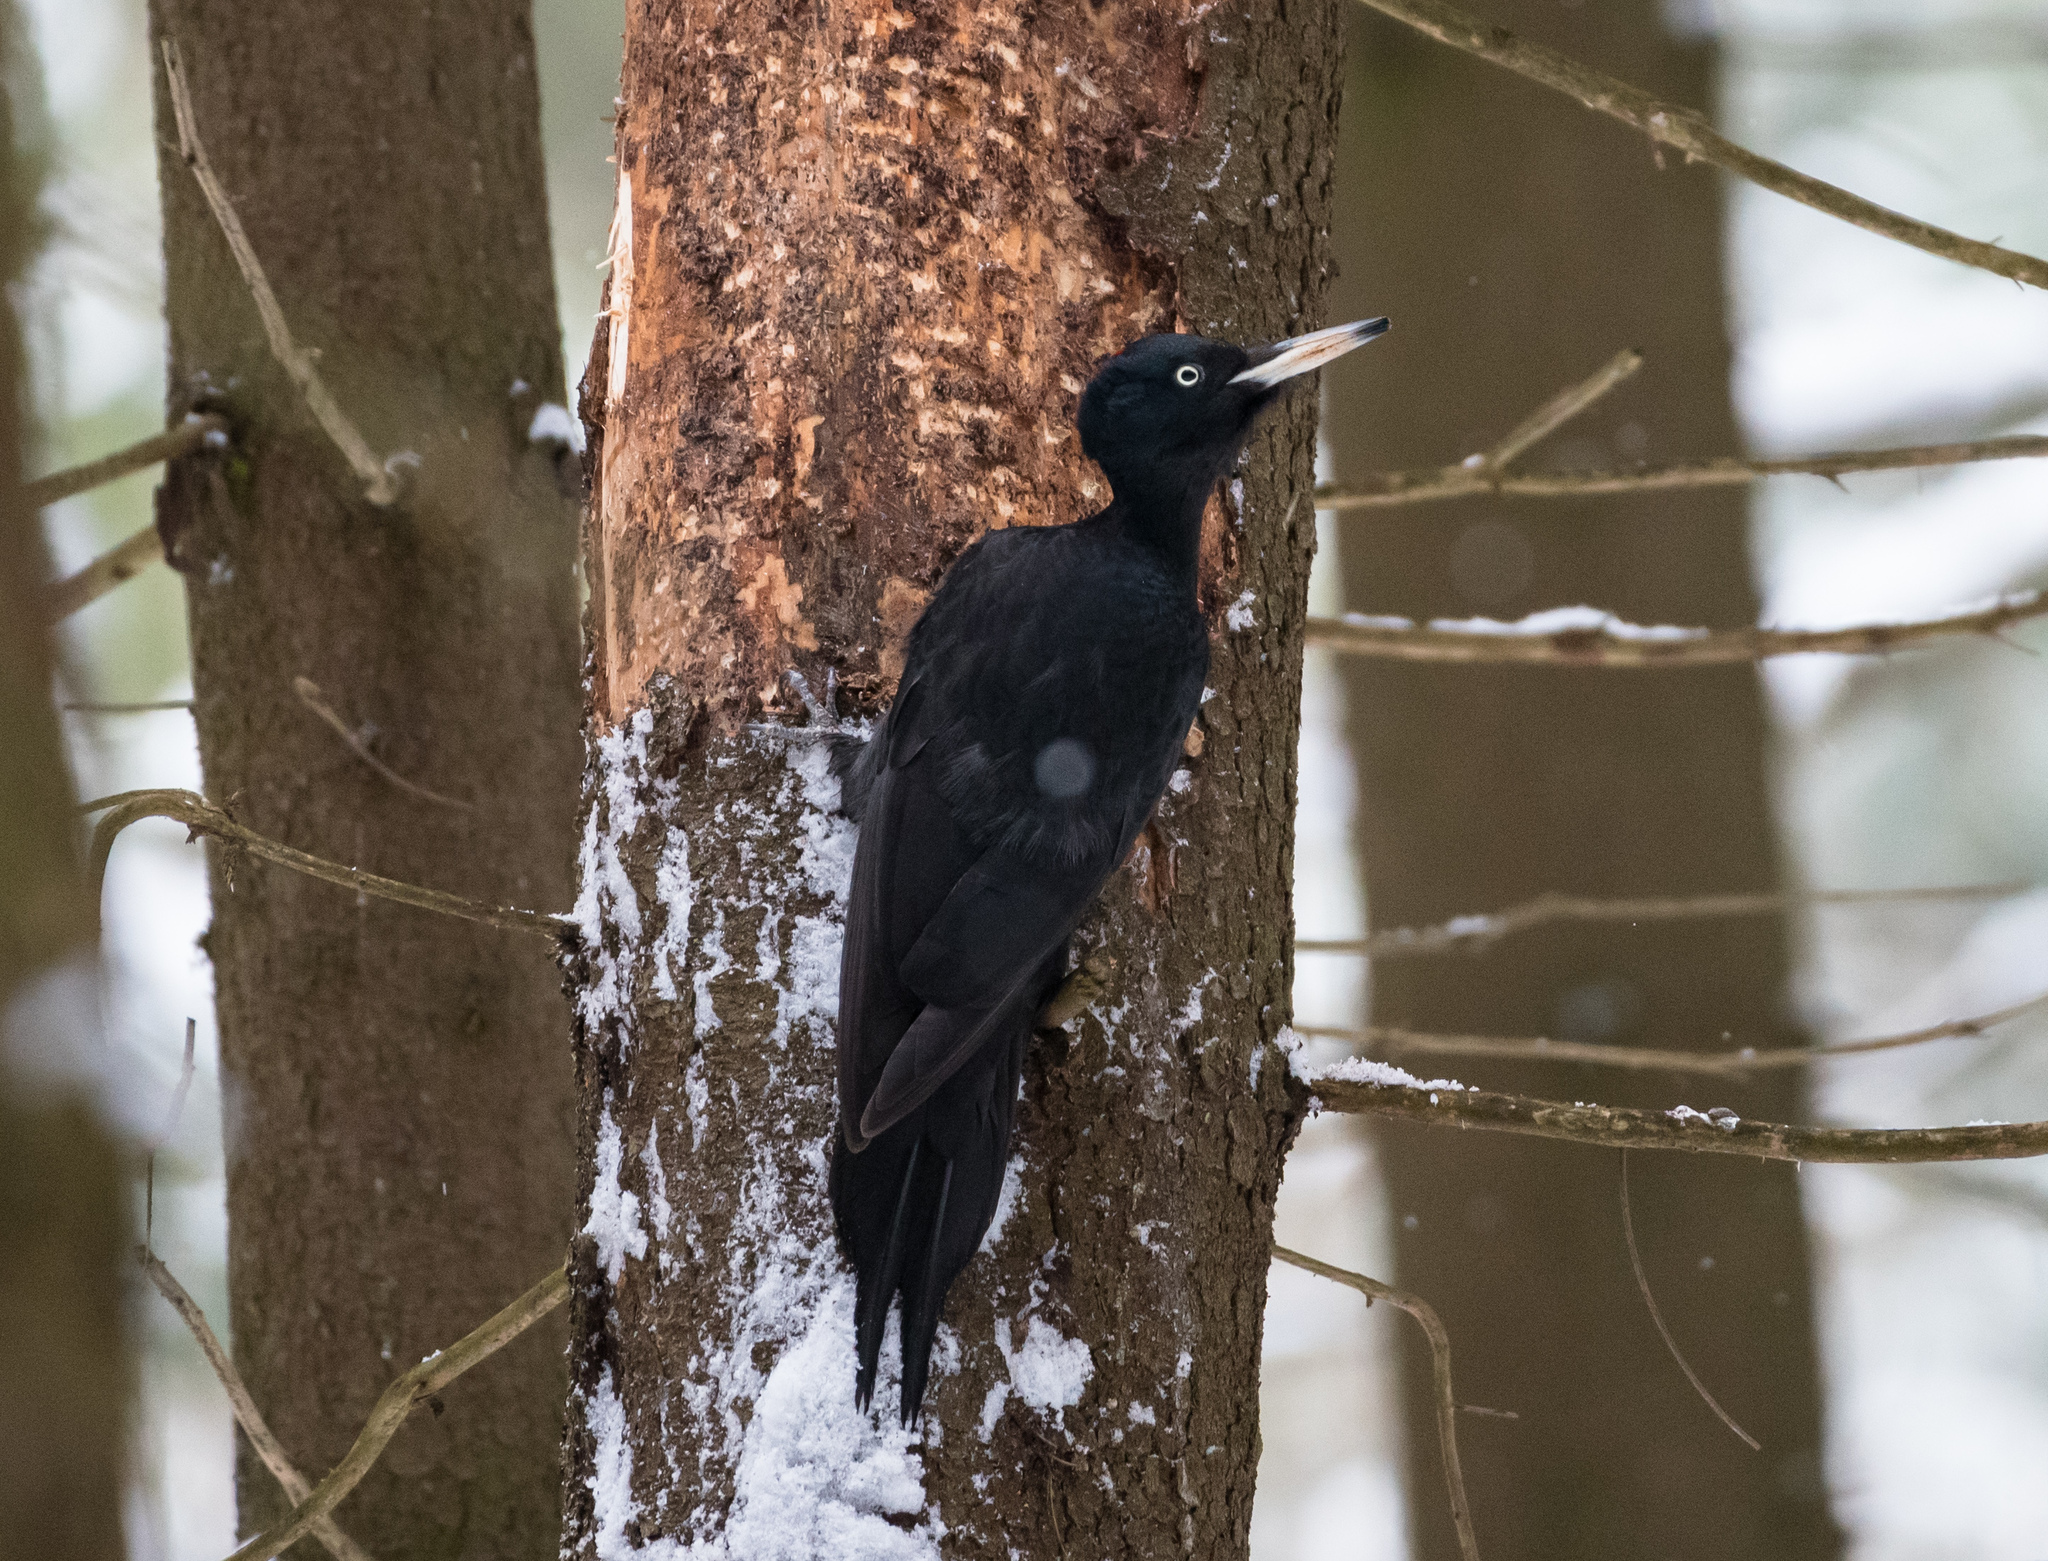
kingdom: Animalia
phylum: Chordata
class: Aves
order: Piciformes
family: Picidae
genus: Dryocopus
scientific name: Dryocopus martius
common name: Black woodpecker
